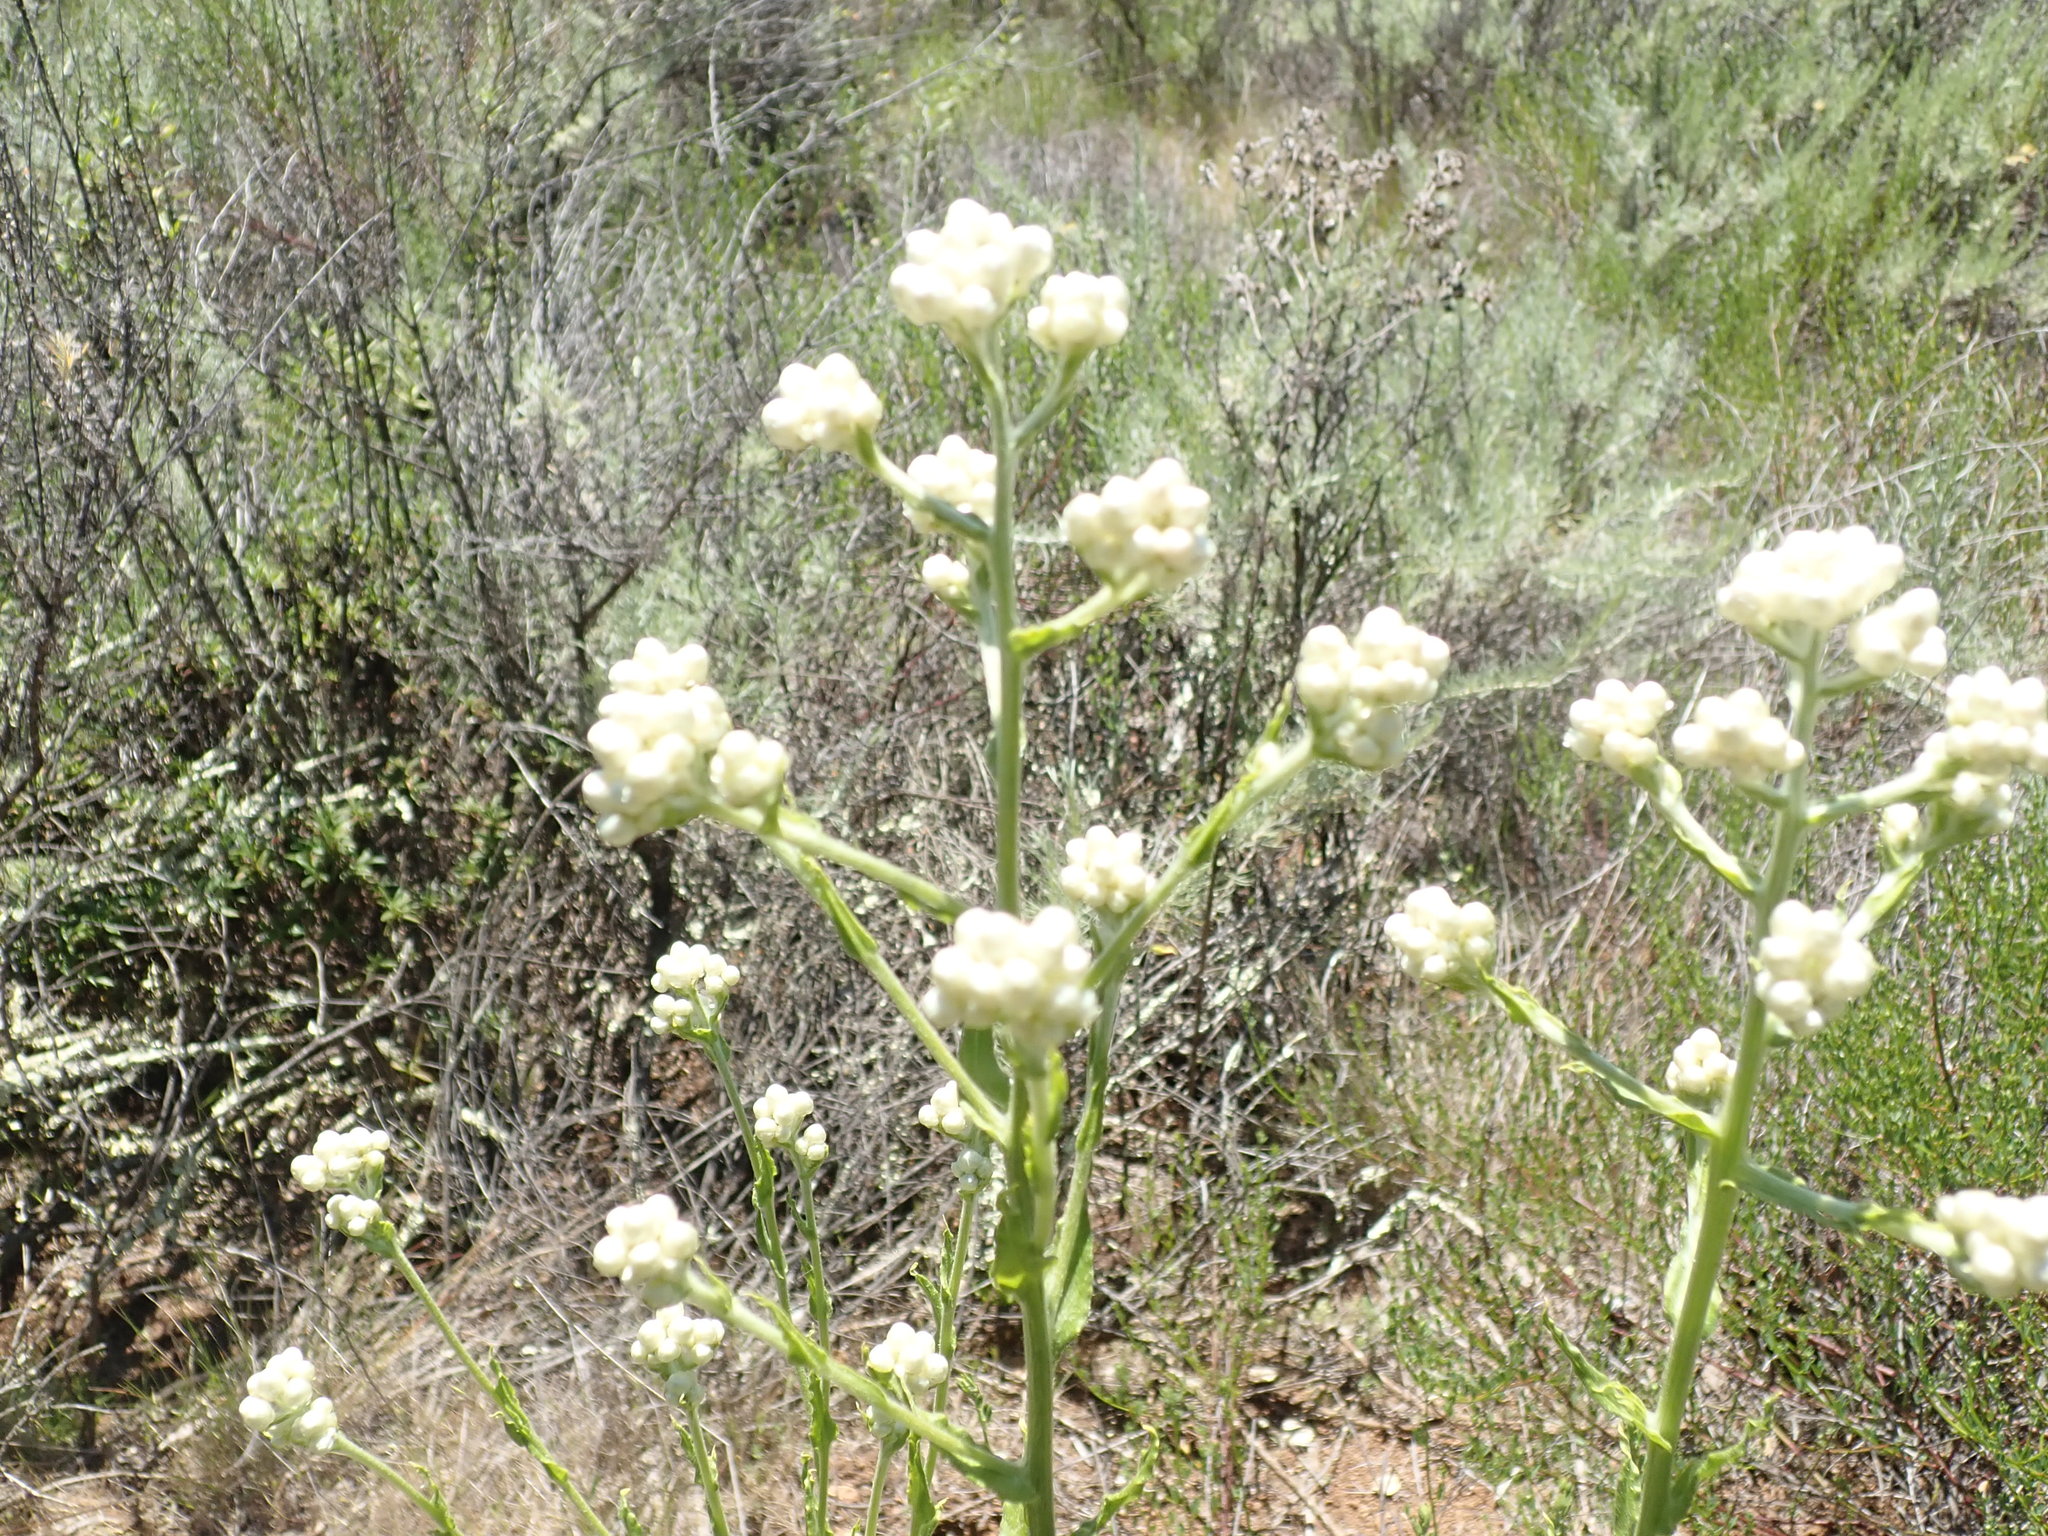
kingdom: Plantae
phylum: Tracheophyta
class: Magnoliopsida
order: Asterales
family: Asteraceae
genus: Pseudognaphalium
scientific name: Pseudognaphalium californicum
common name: California rabbit-tobacco
